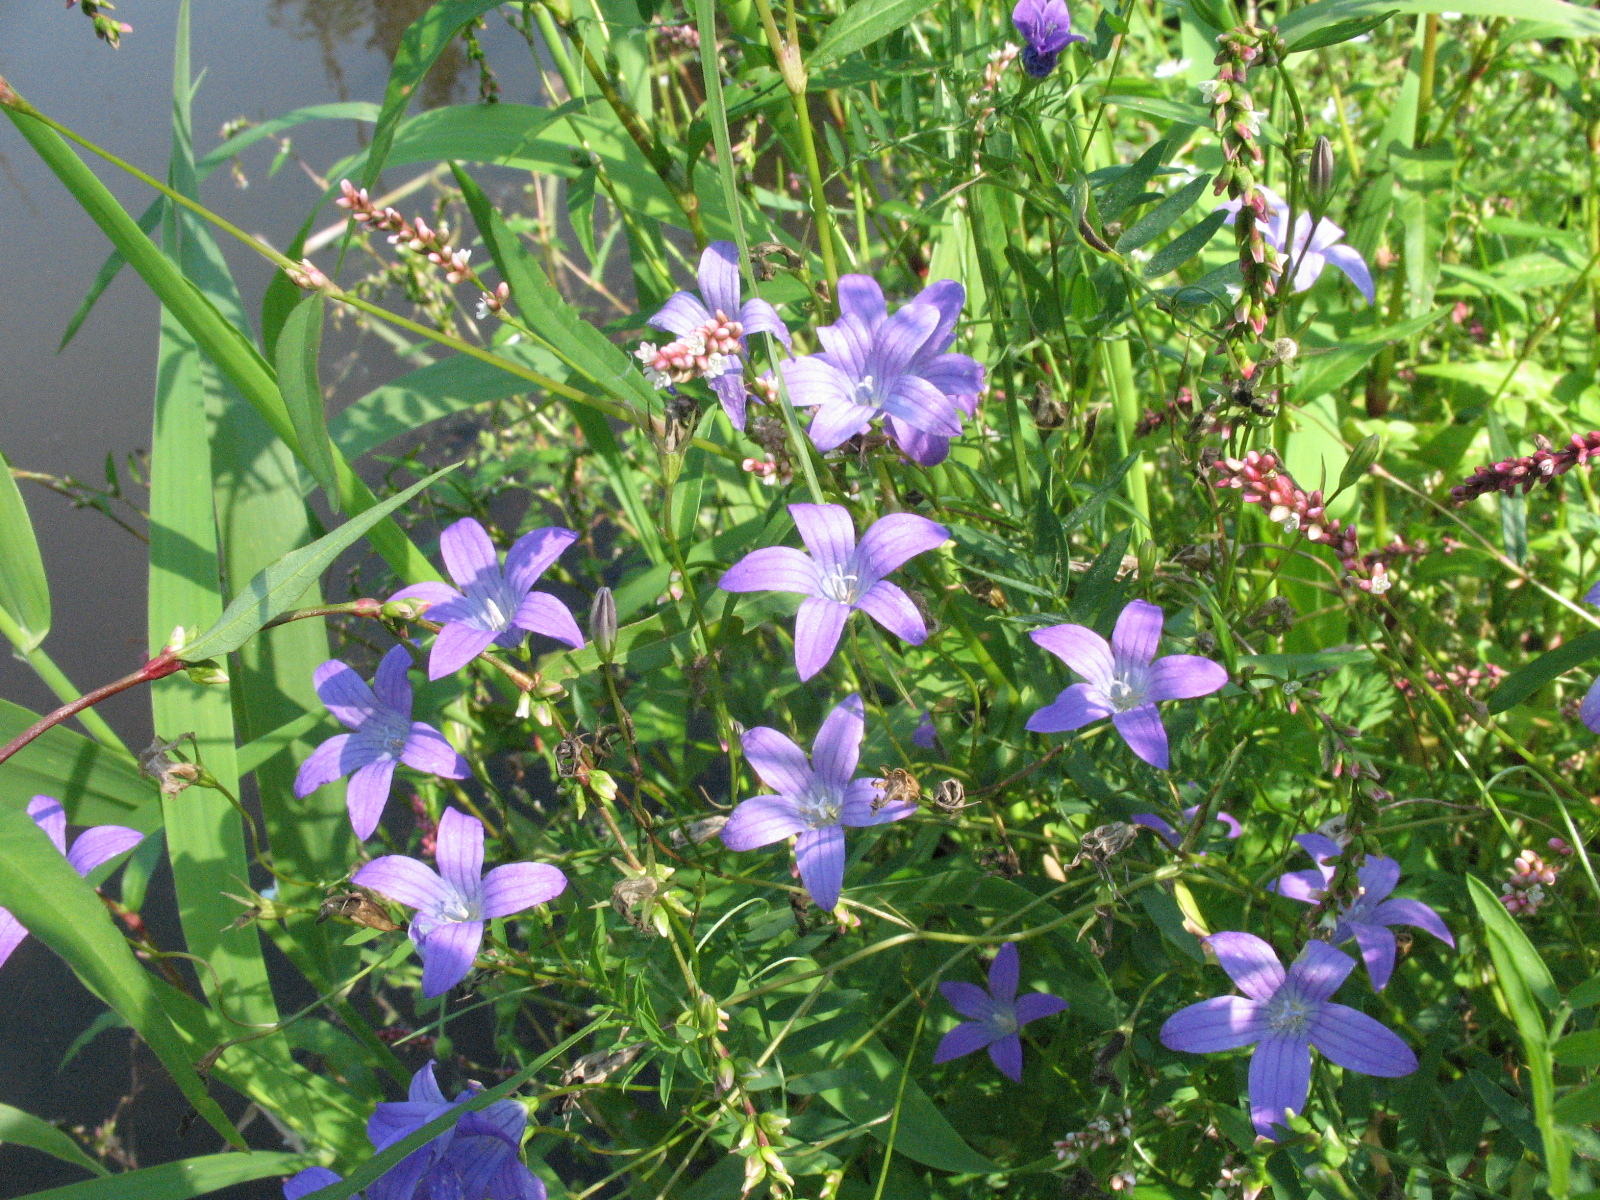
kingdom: Plantae
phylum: Tracheophyta
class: Magnoliopsida
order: Asterales
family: Campanulaceae
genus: Campanula
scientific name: Campanula patula
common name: Spreading bellflower
